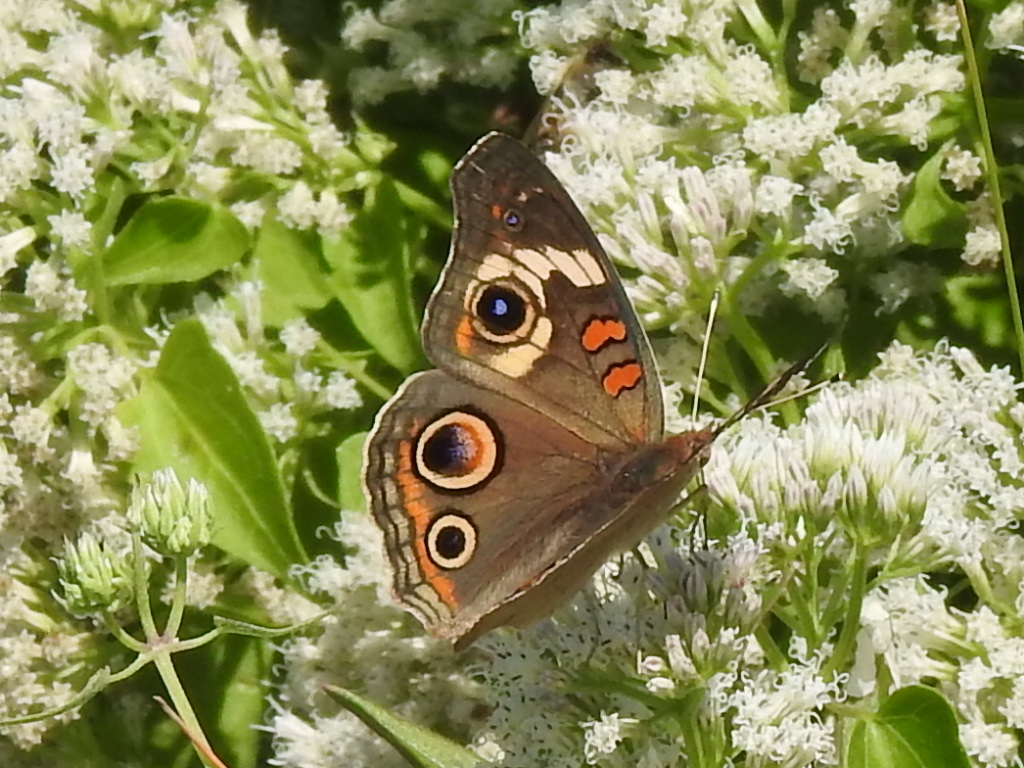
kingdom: Animalia
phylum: Arthropoda
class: Insecta
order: Lepidoptera
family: Nymphalidae
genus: Junonia
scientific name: Junonia coenia
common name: Common buckeye
